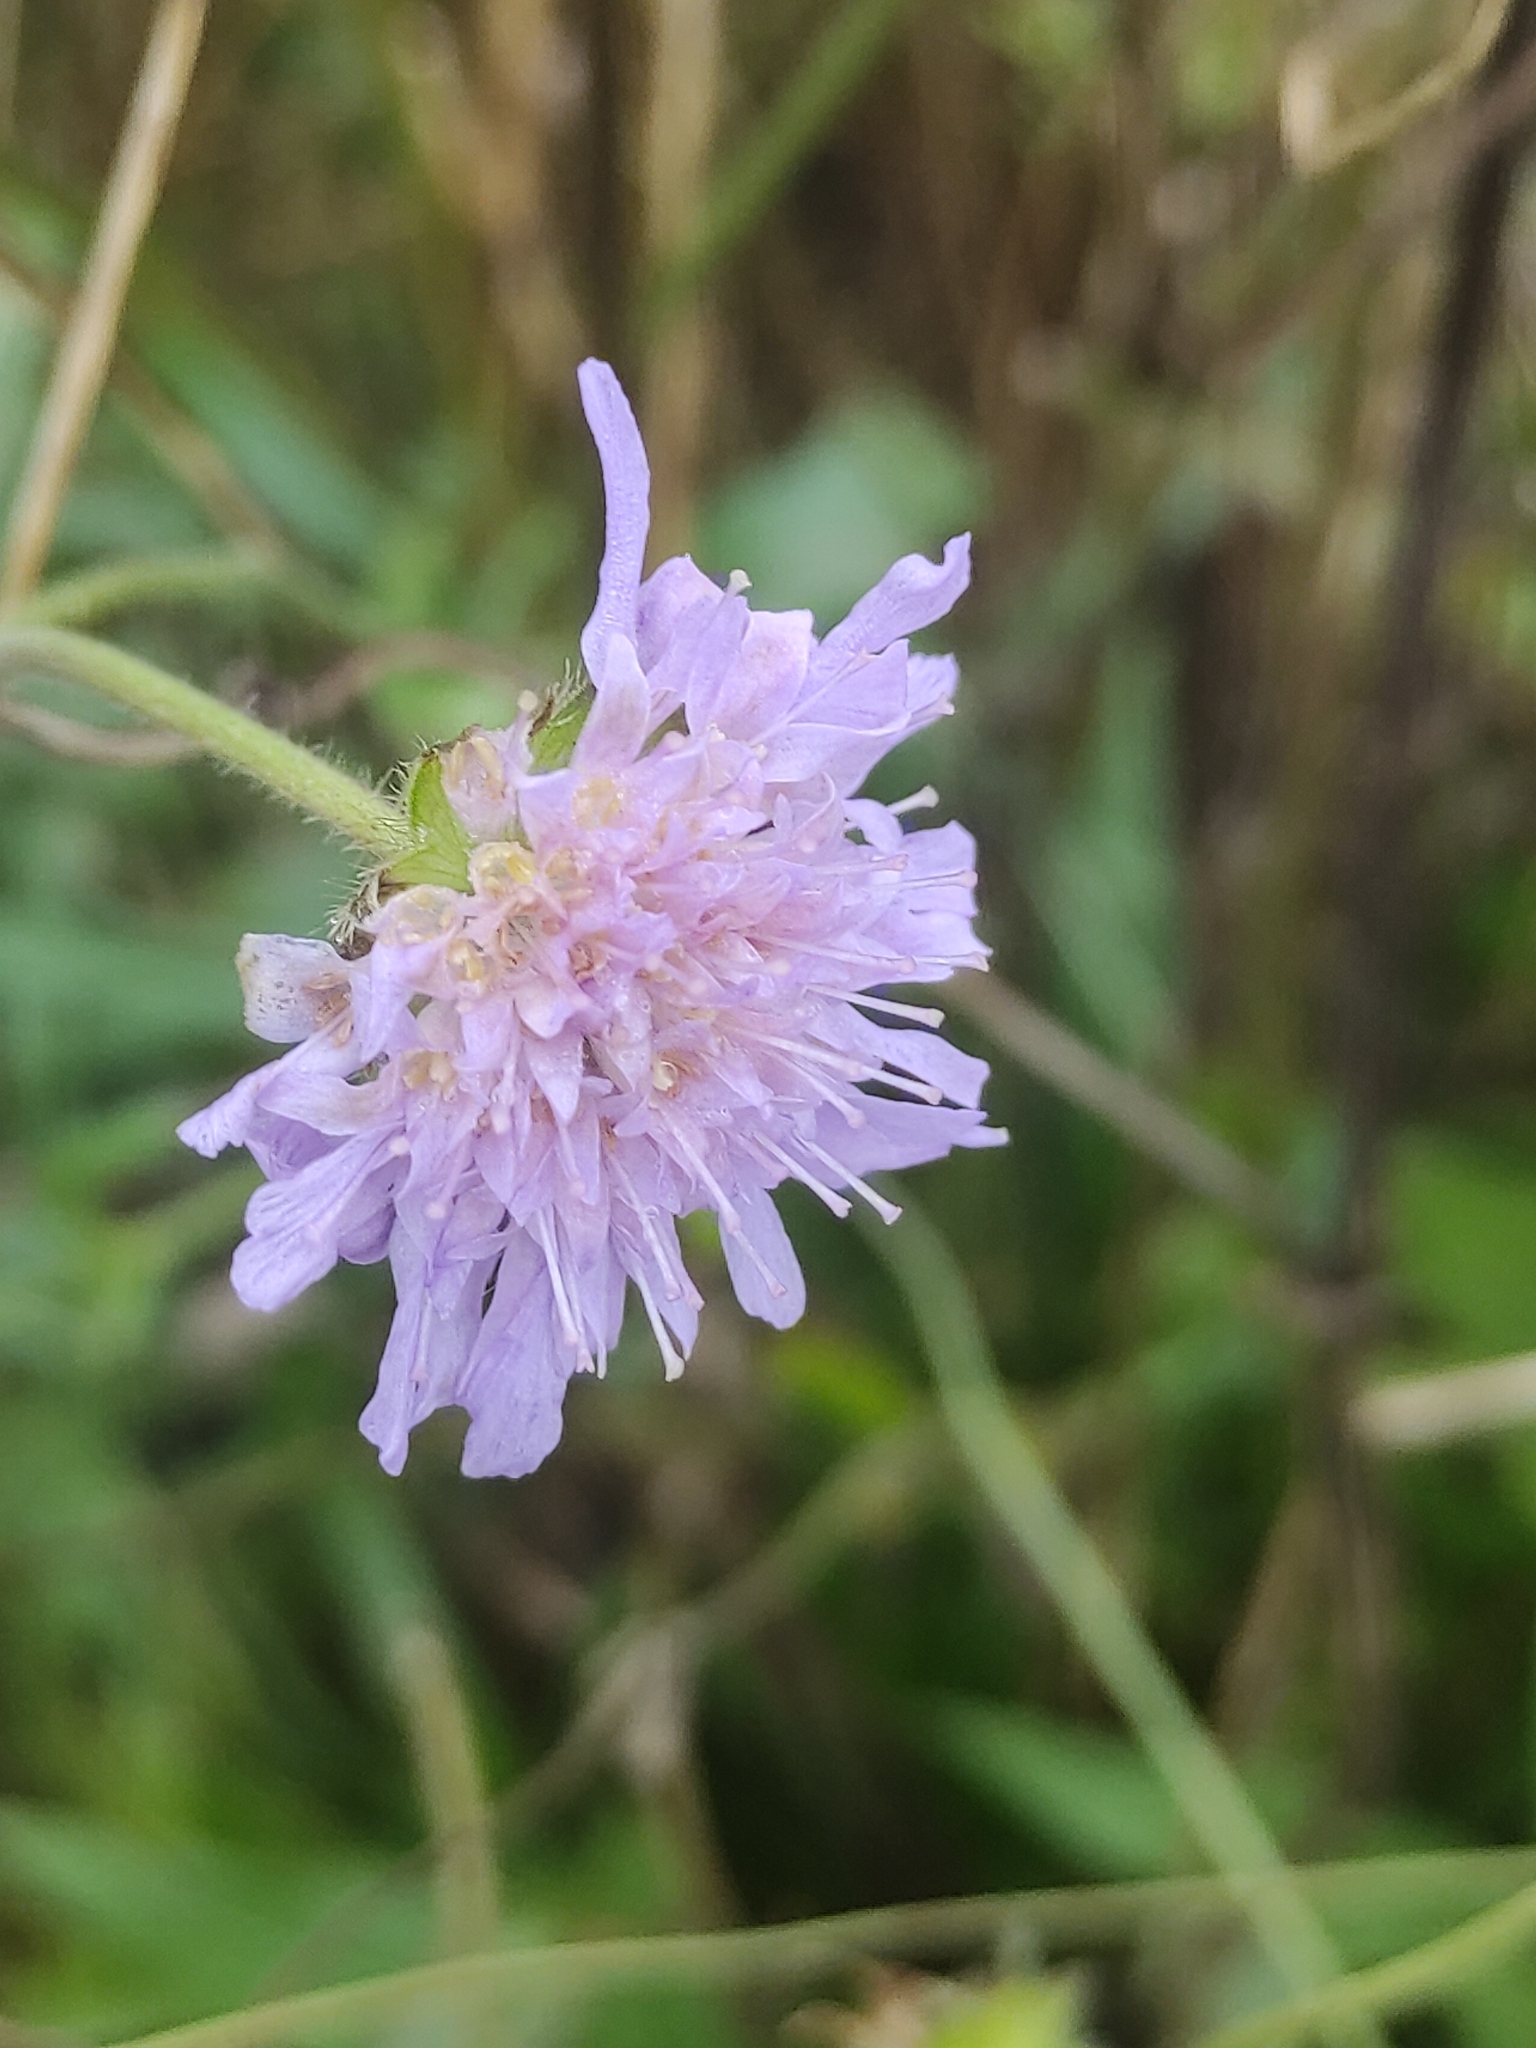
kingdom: Plantae
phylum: Tracheophyta
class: Magnoliopsida
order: Dipsacales
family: Caprifoliaceae
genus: Knautia
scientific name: Knautia arvensis
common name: Field scabiosa
